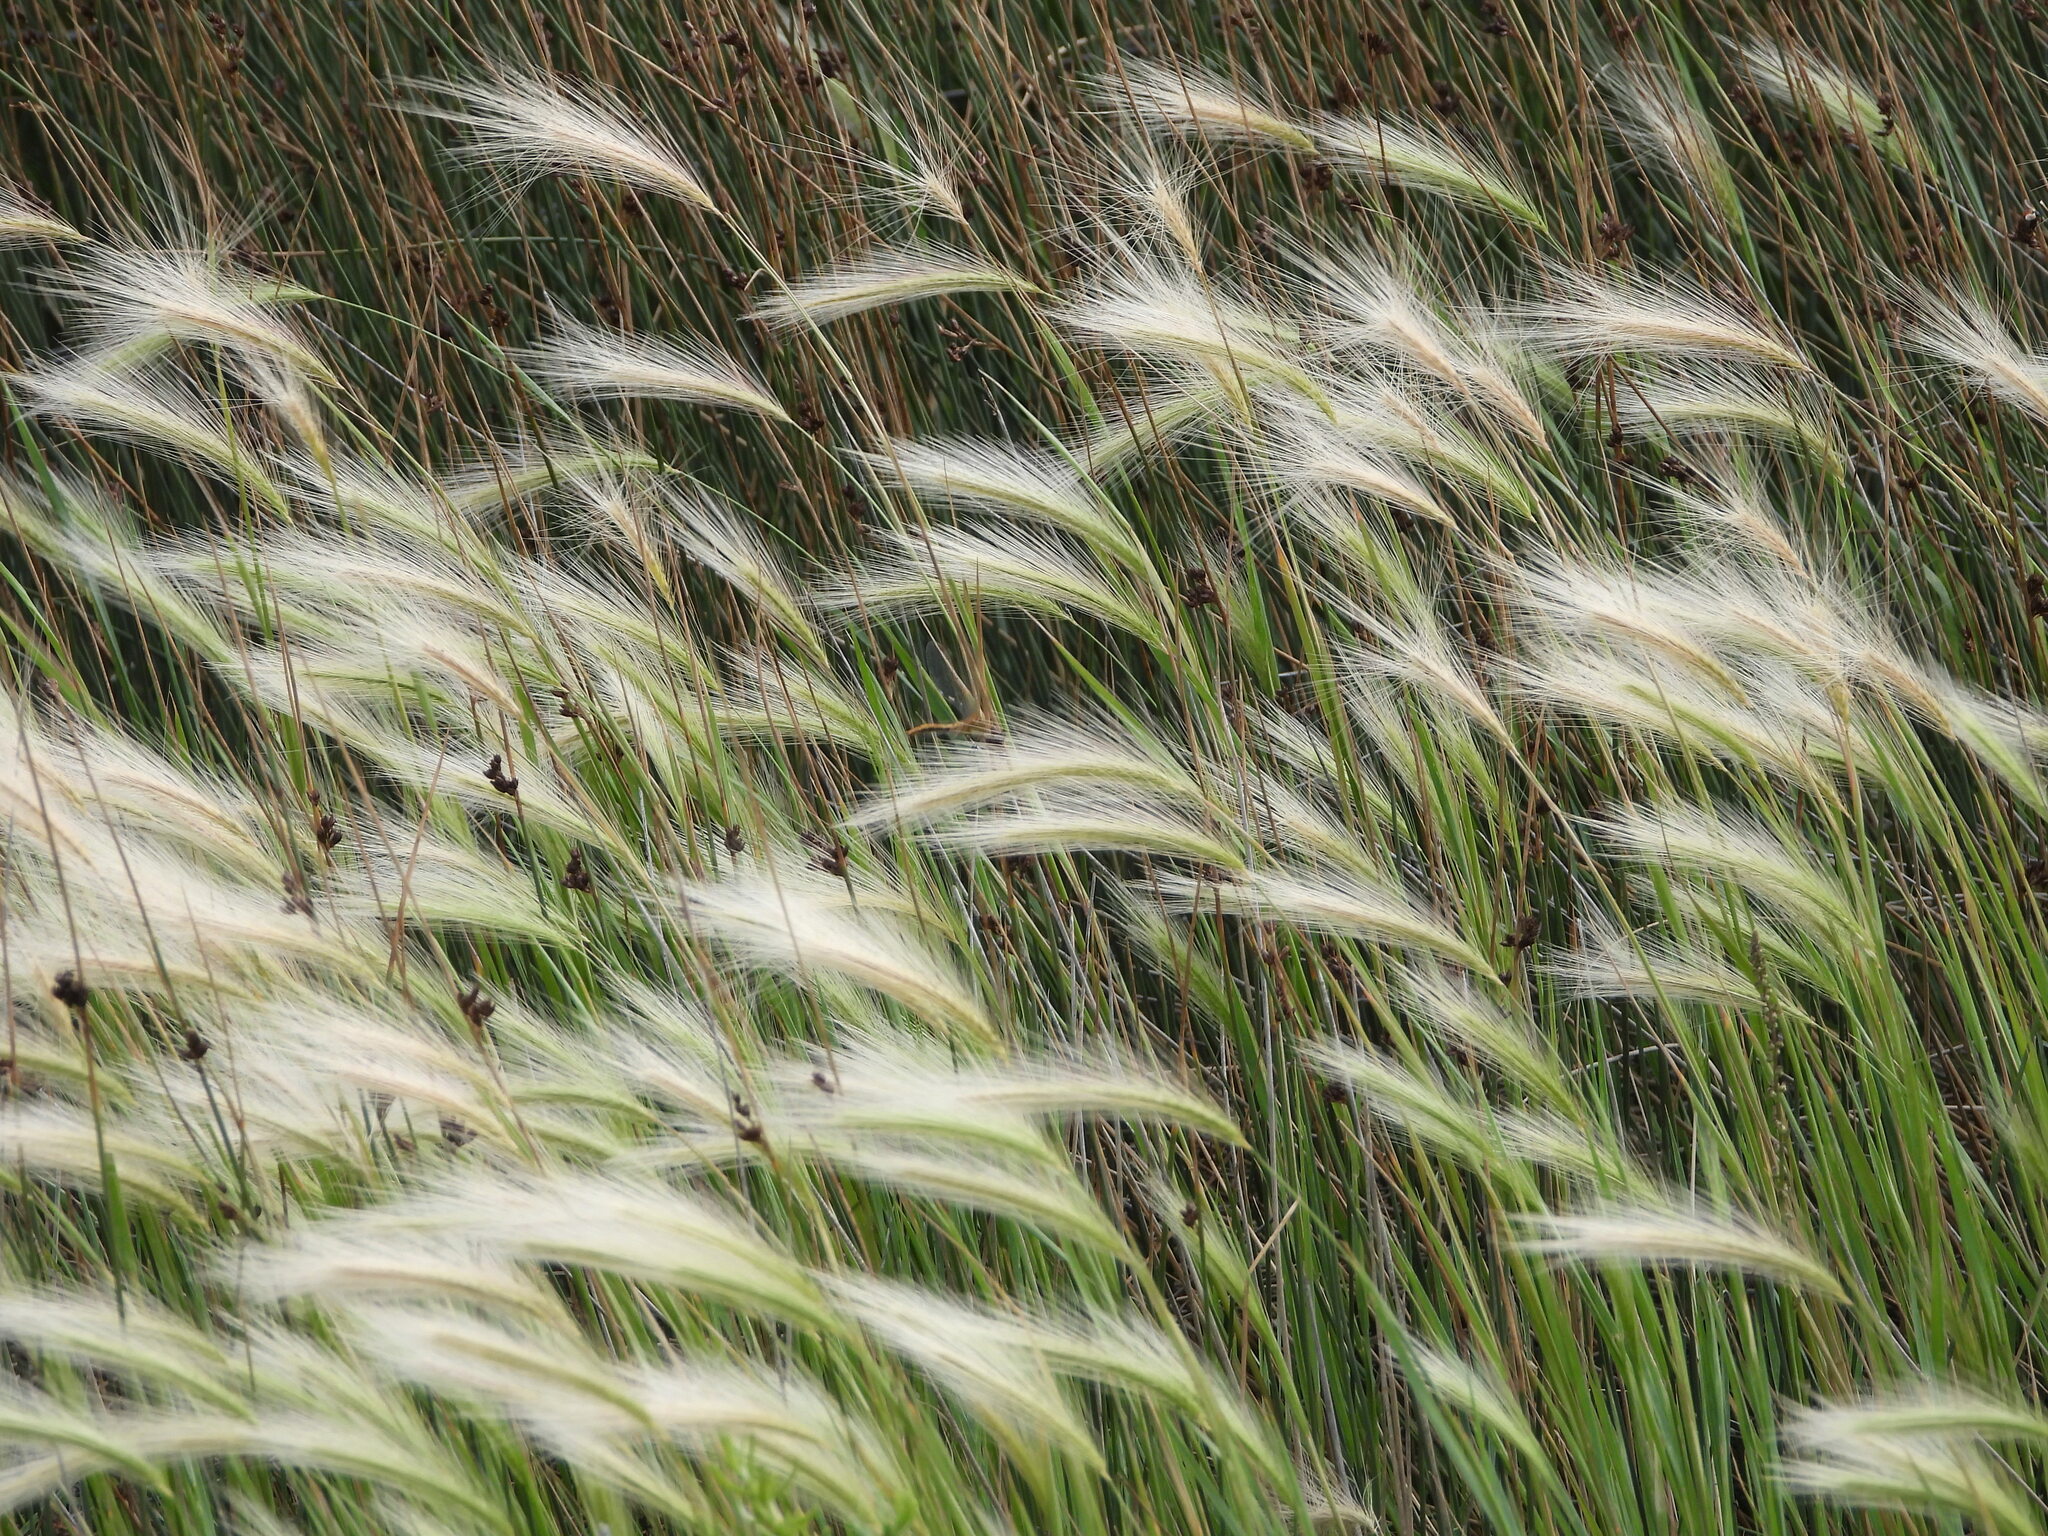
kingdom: Plantae
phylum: Tracheophyta
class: Liliopsida
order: Poales
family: Poaceae
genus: Hordeum
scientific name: Hordeum jubatum
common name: Foxtail barley
